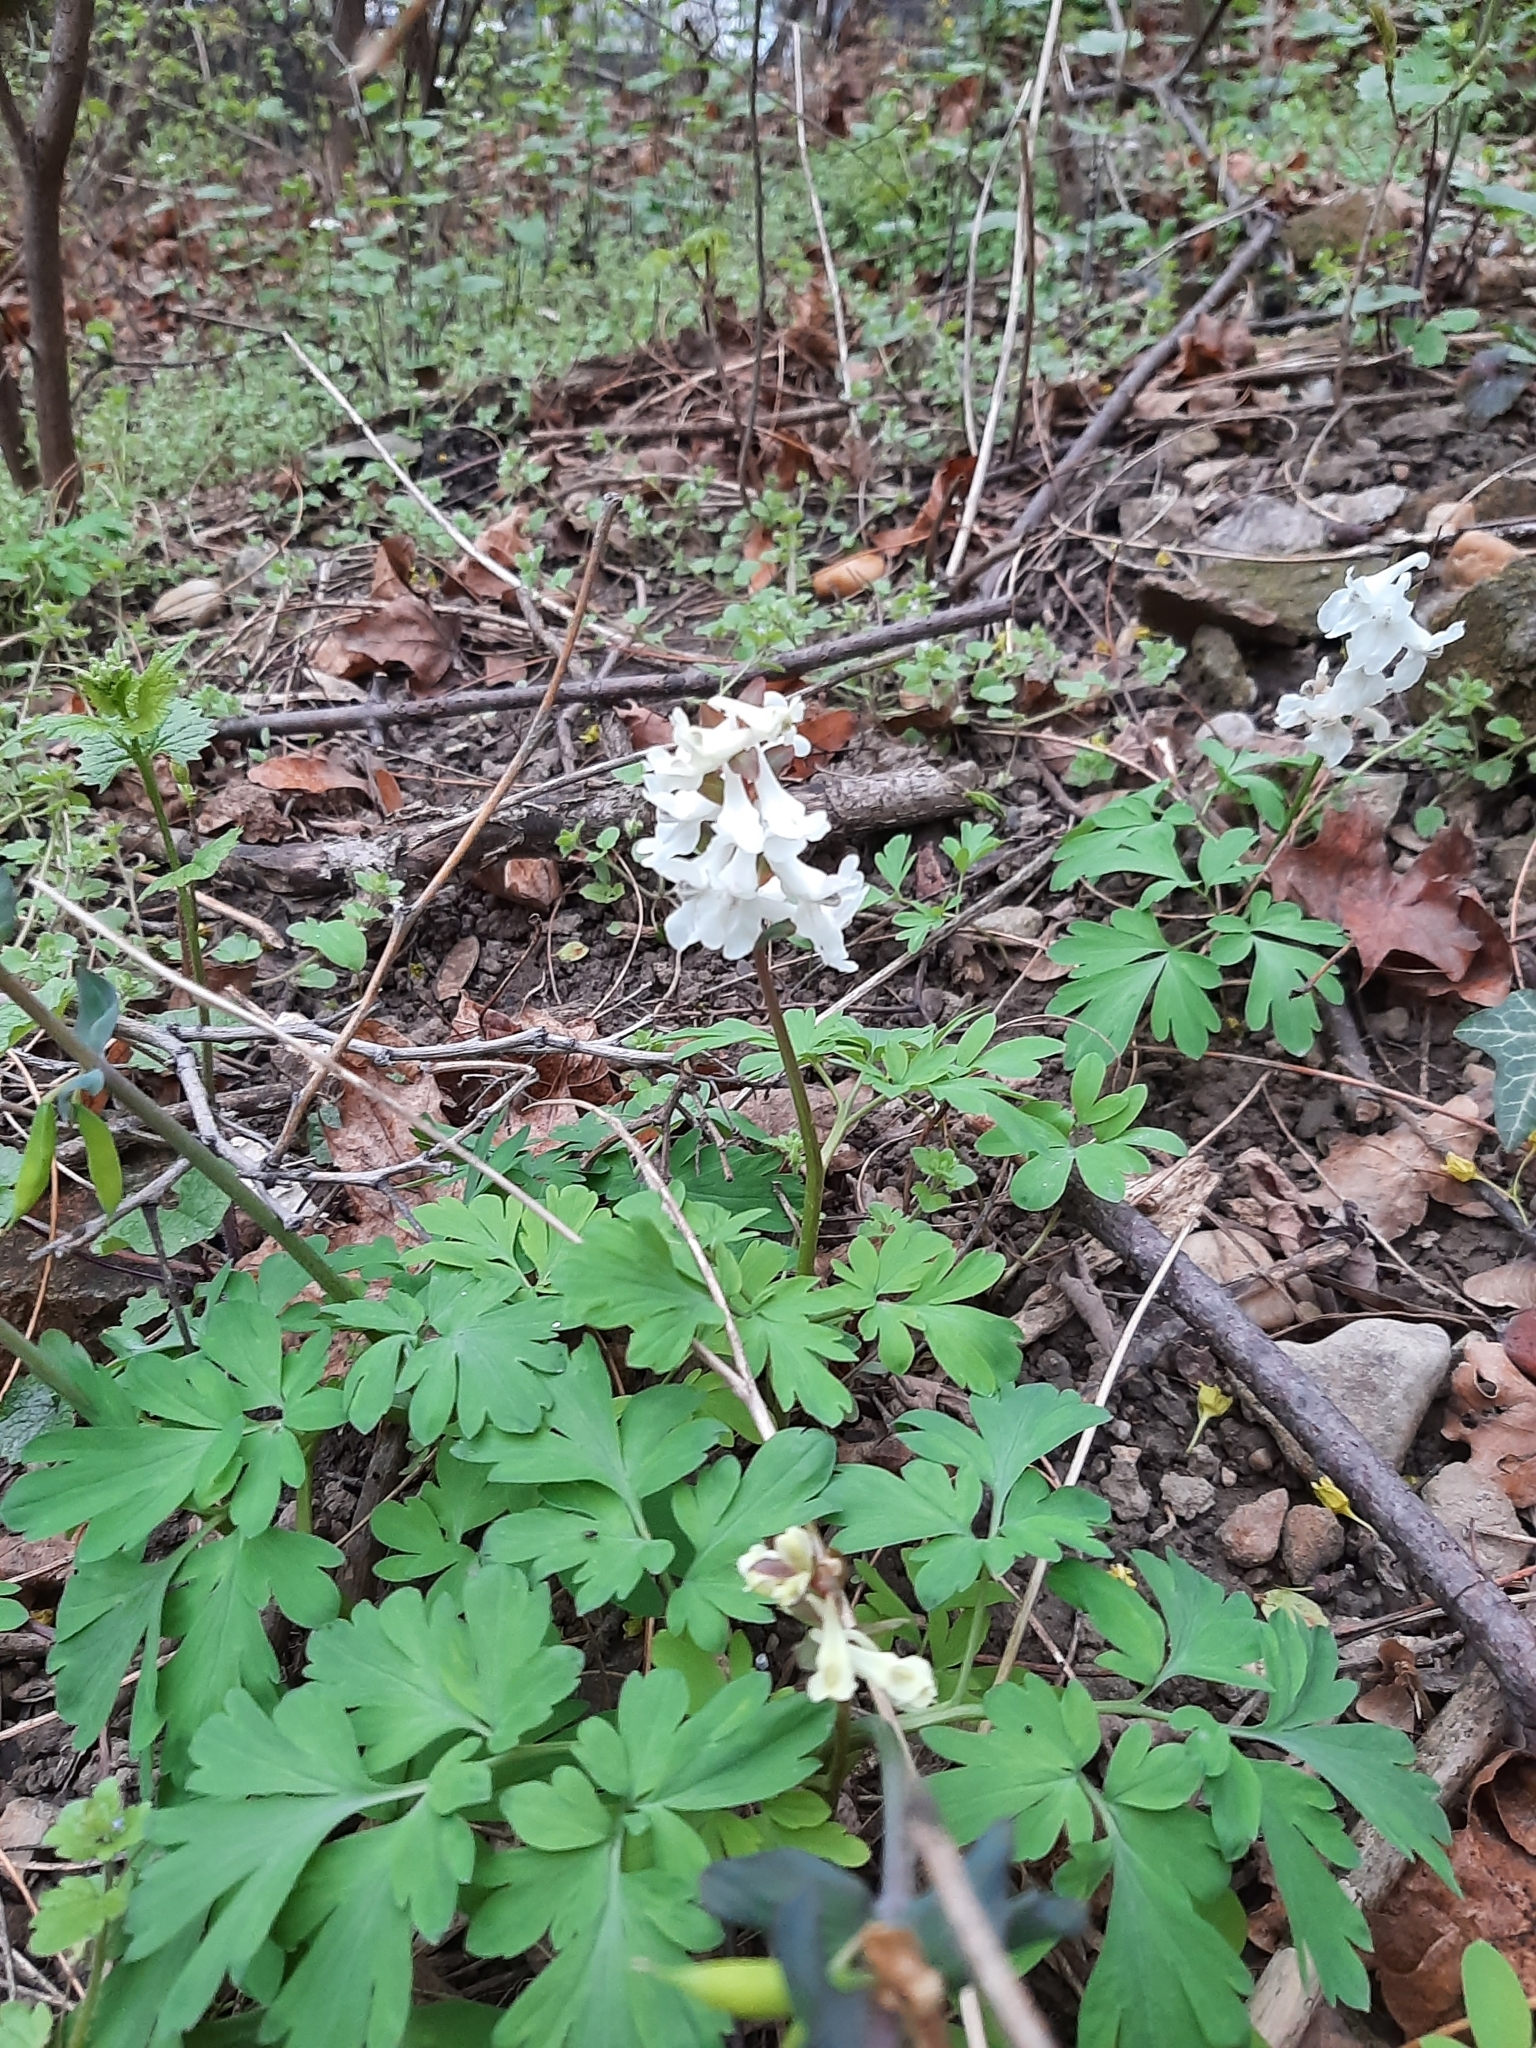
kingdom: Plantae
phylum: Tracheophyta
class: Magnoliopsida
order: Ranunculales
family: Papaveraceae
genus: Corydalis
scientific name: Corydalis cava
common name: Hollowroot
